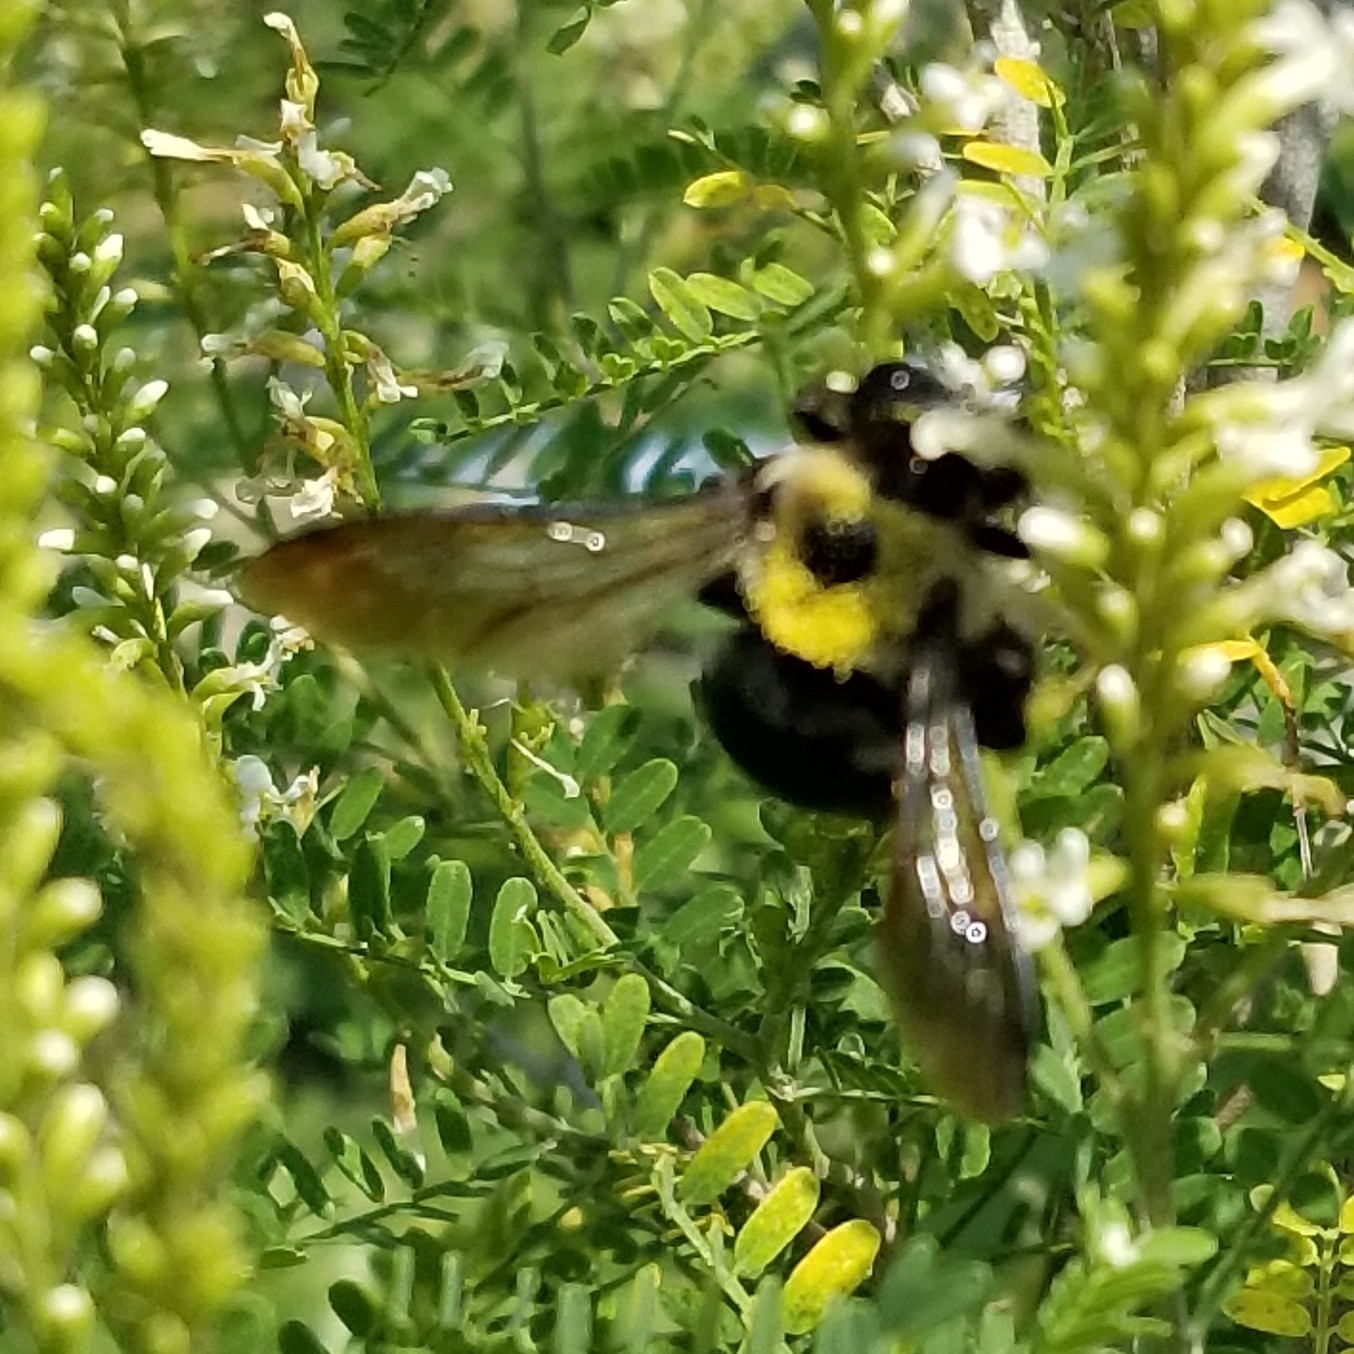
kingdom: Animalia
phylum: Arthropoda
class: Insecta
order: Hymenoptera
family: Apidae
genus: Xylocopa
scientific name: Xylocopa virginica
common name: Carpenter bee
